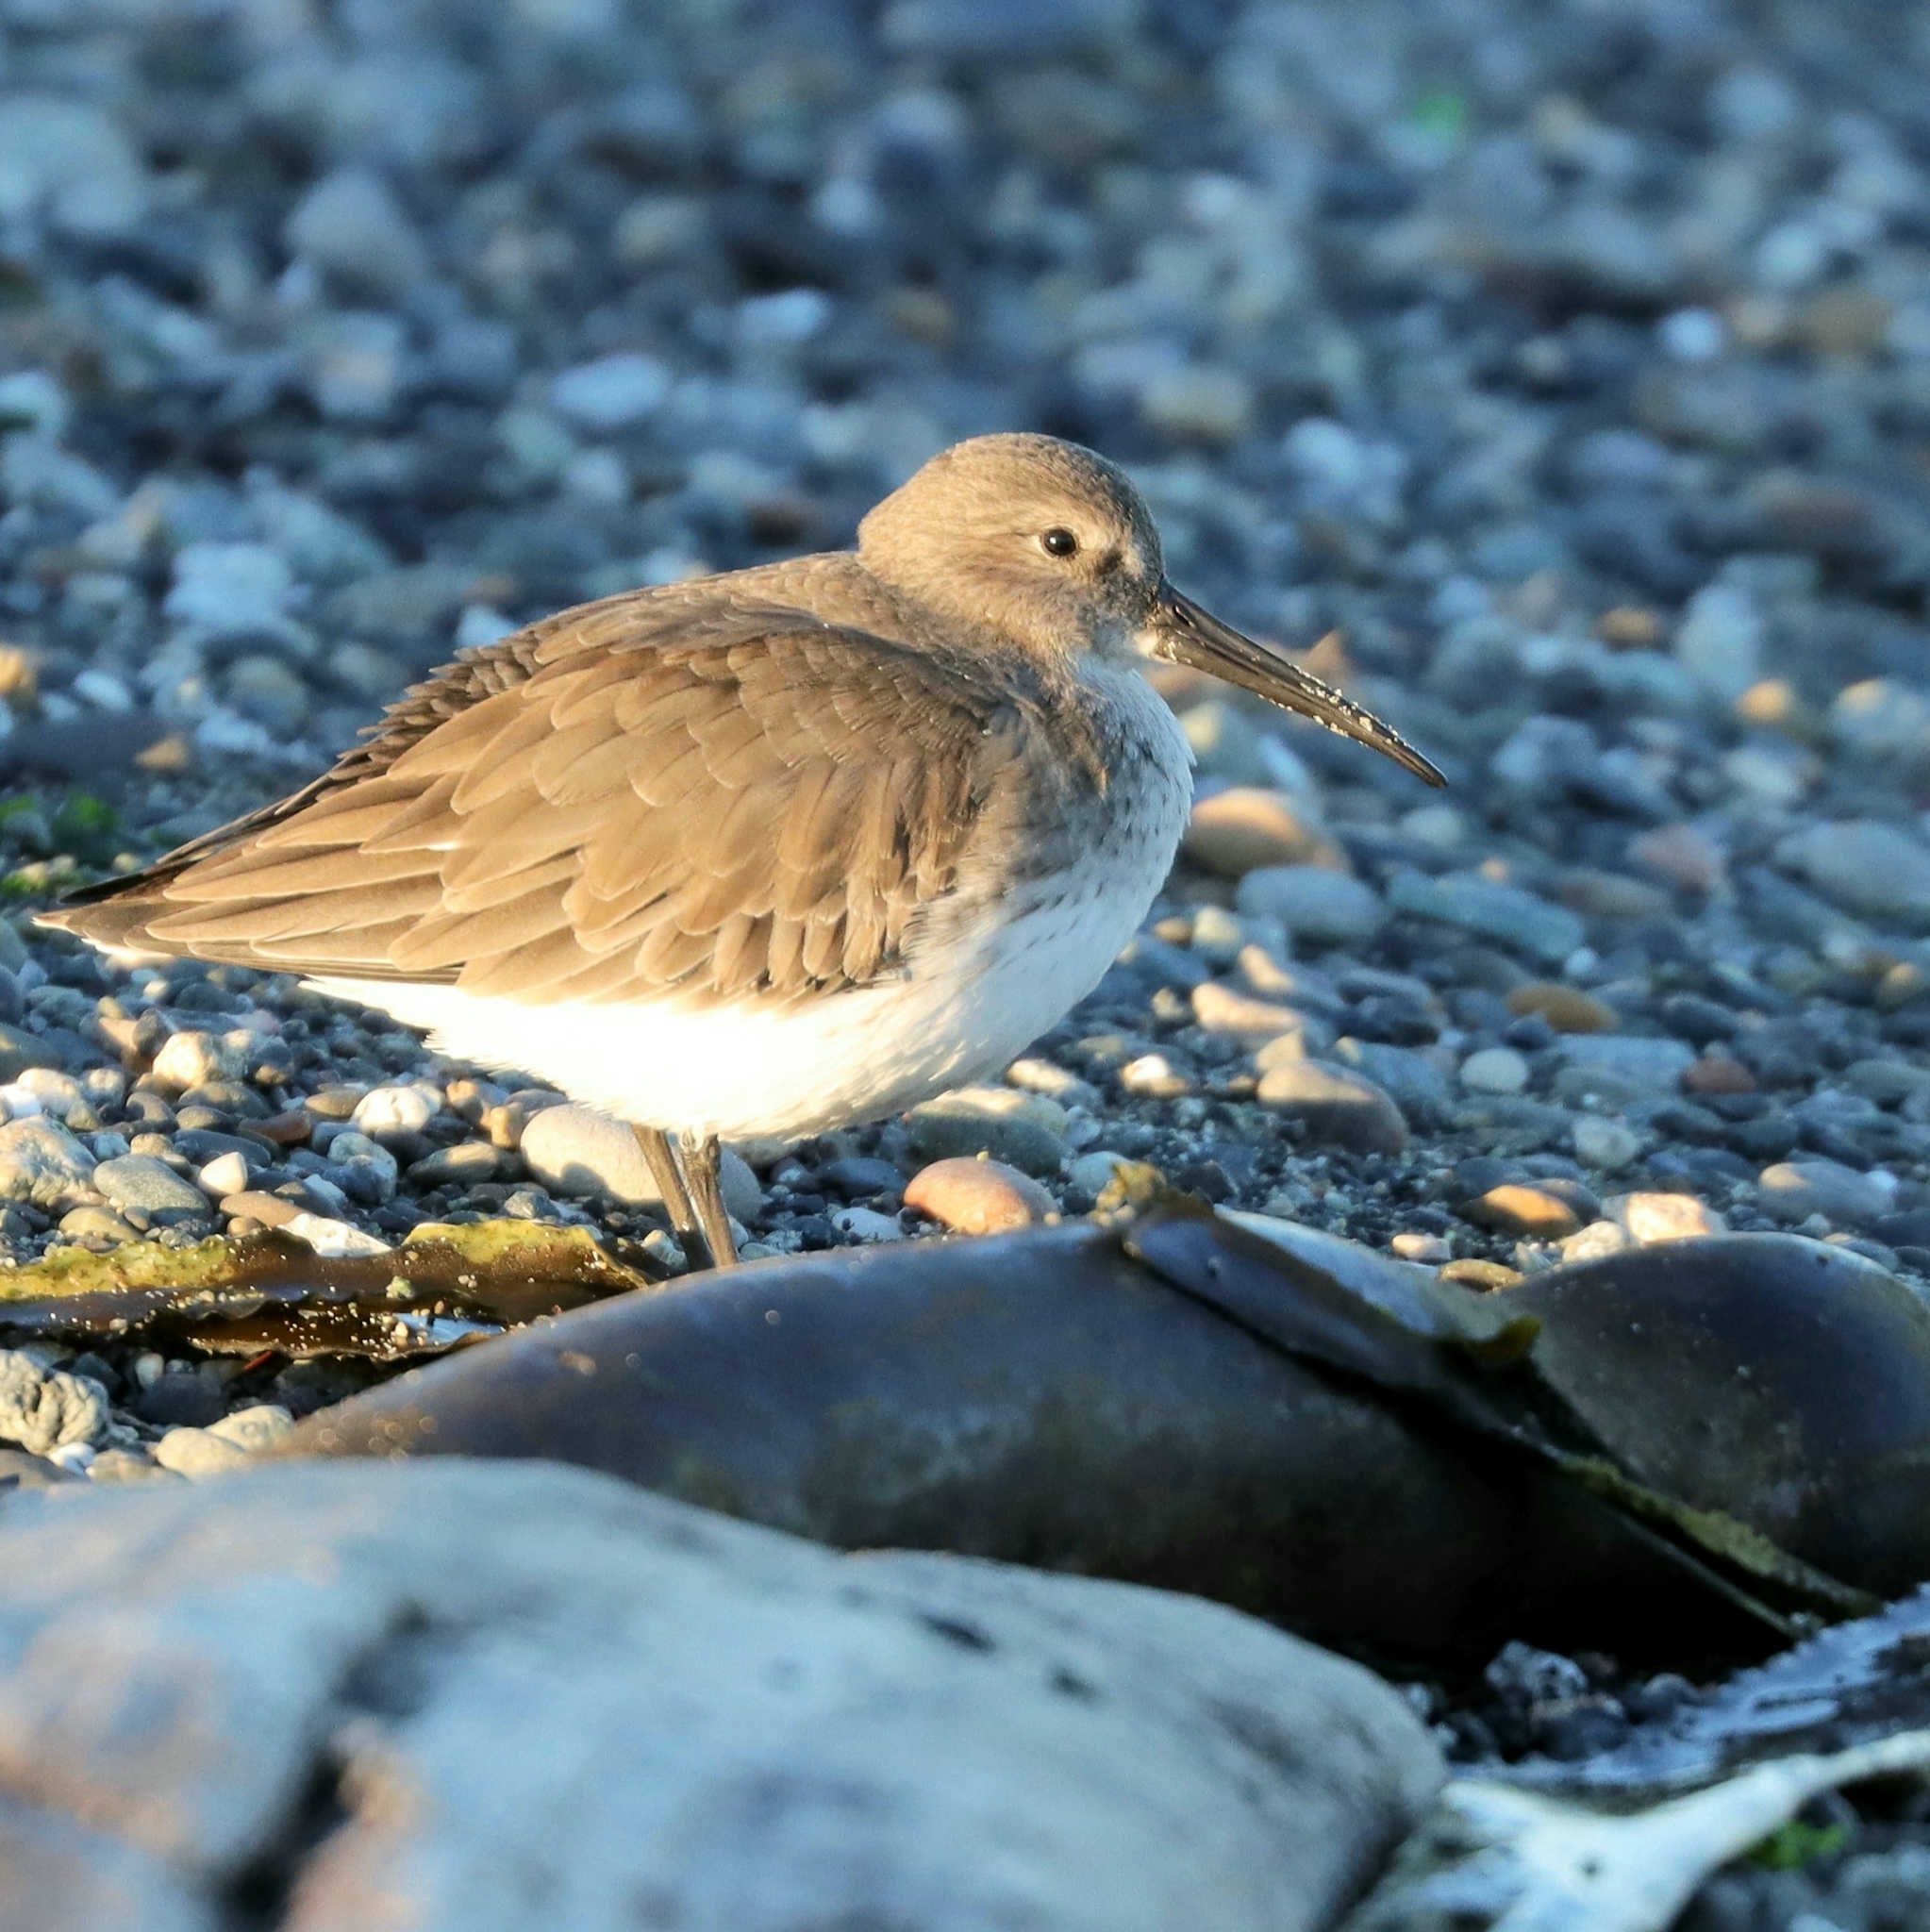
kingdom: Animalia
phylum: Chordata
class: Aves
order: Charadriiformes
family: Scolopacidae
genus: Calidris
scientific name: Calidris alpina
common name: Dunlin
